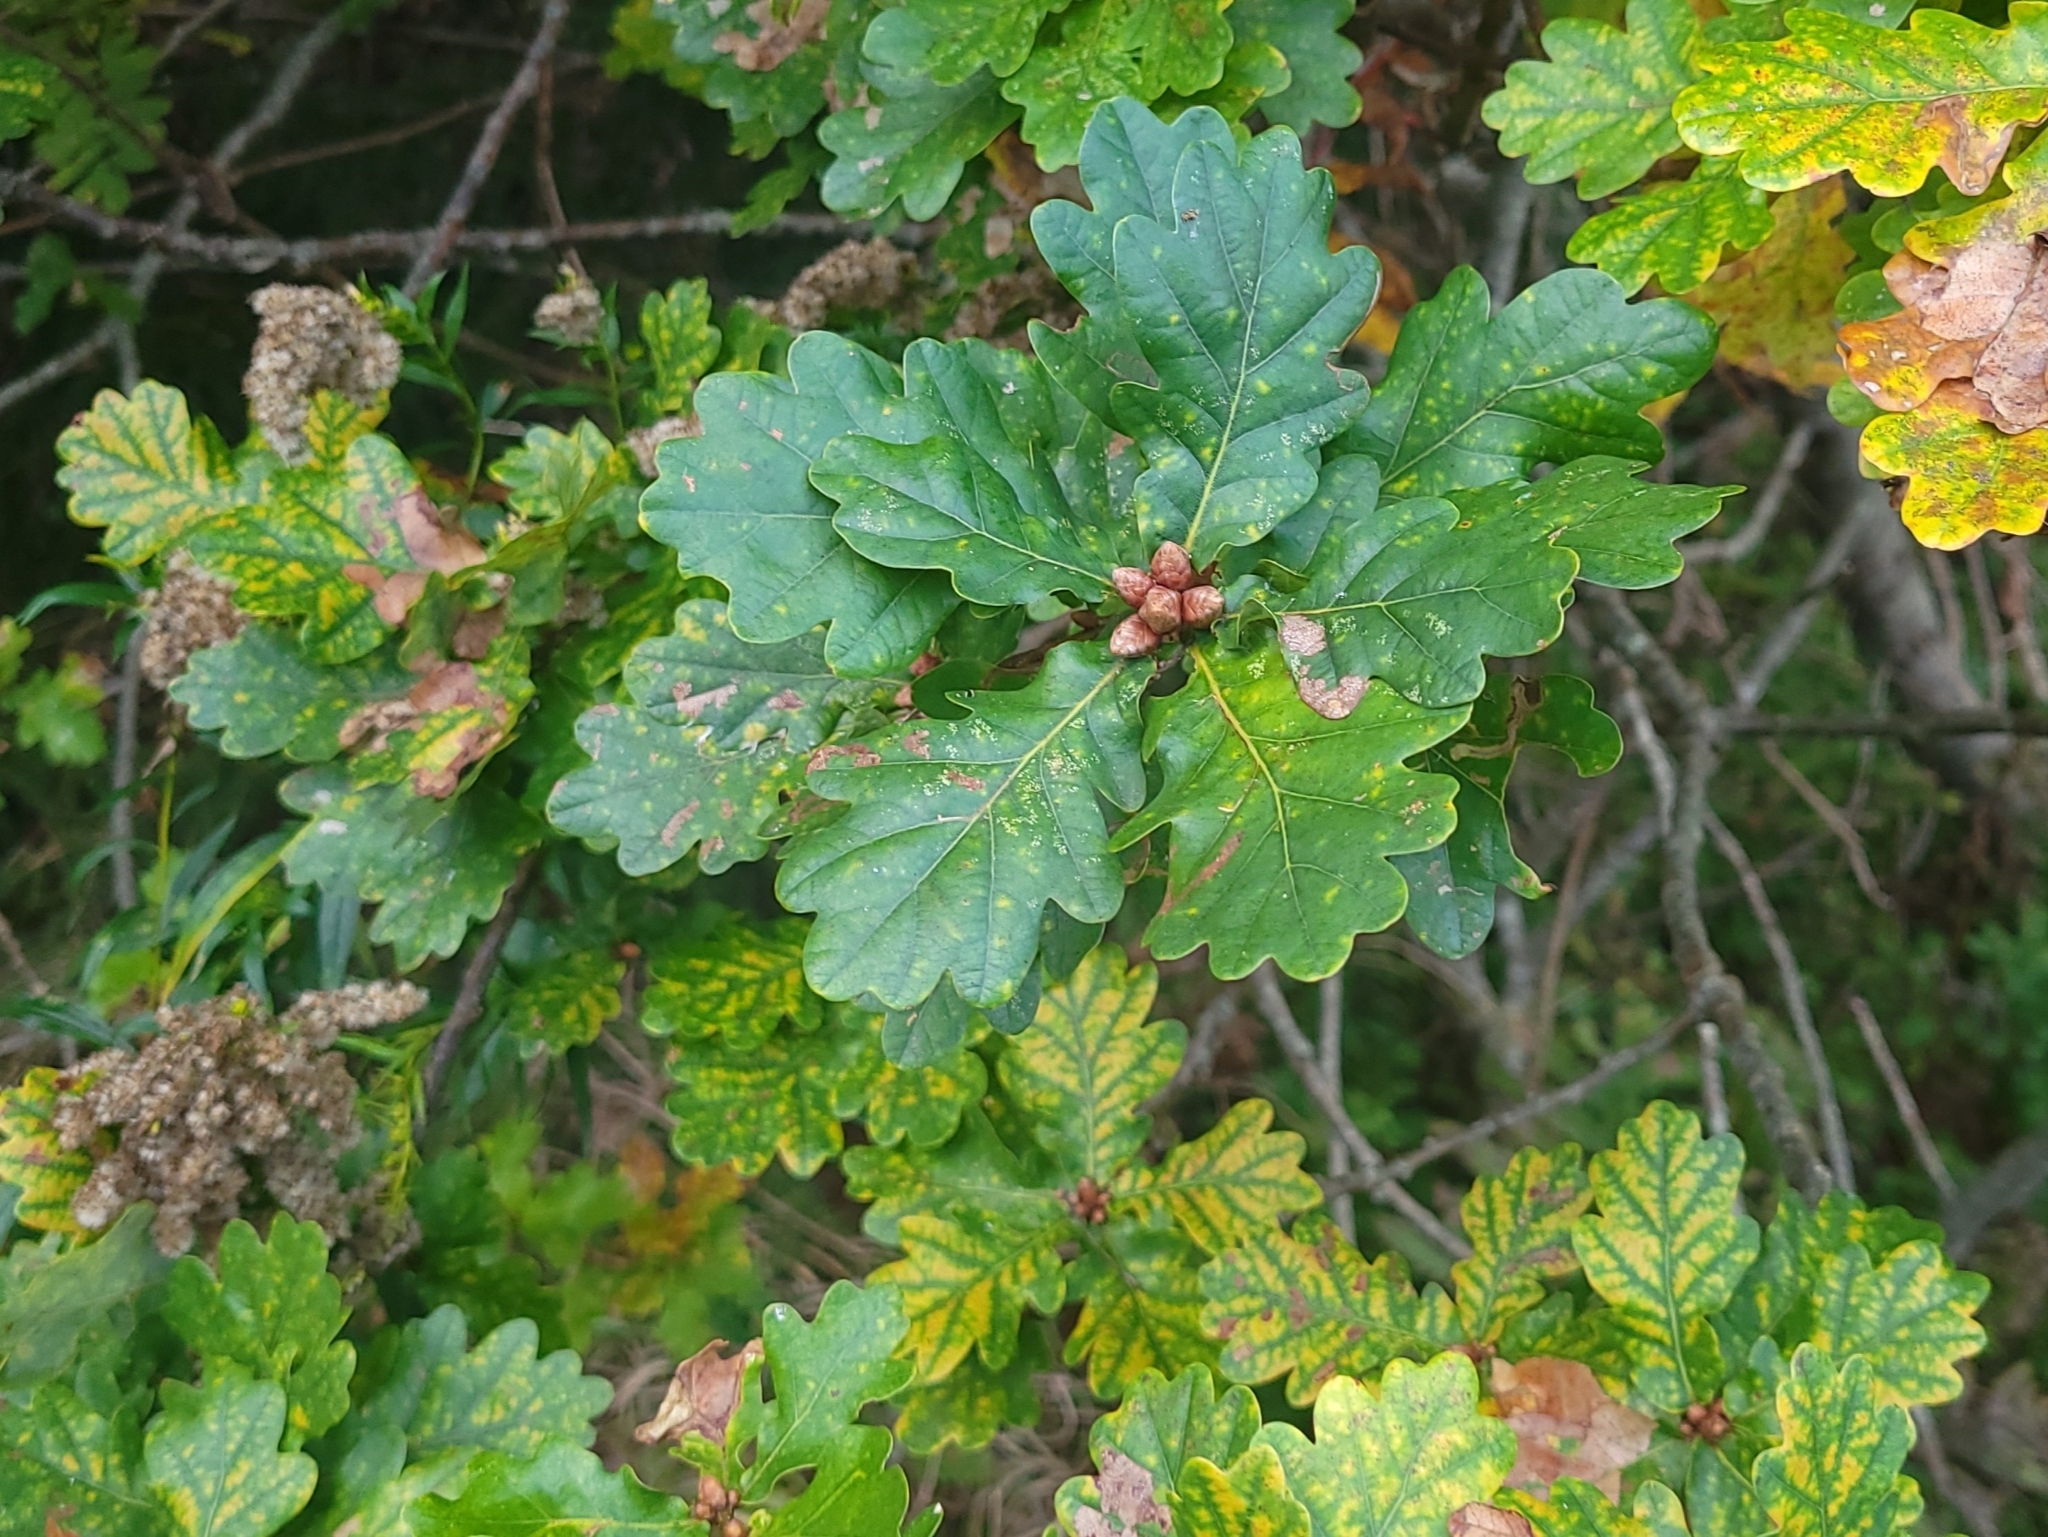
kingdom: Plantae
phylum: Tracheophyta
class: Magnoliopsida
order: Fagales
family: Fagaceae
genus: Quercus
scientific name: Quercus robur
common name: Pedunculate oak
